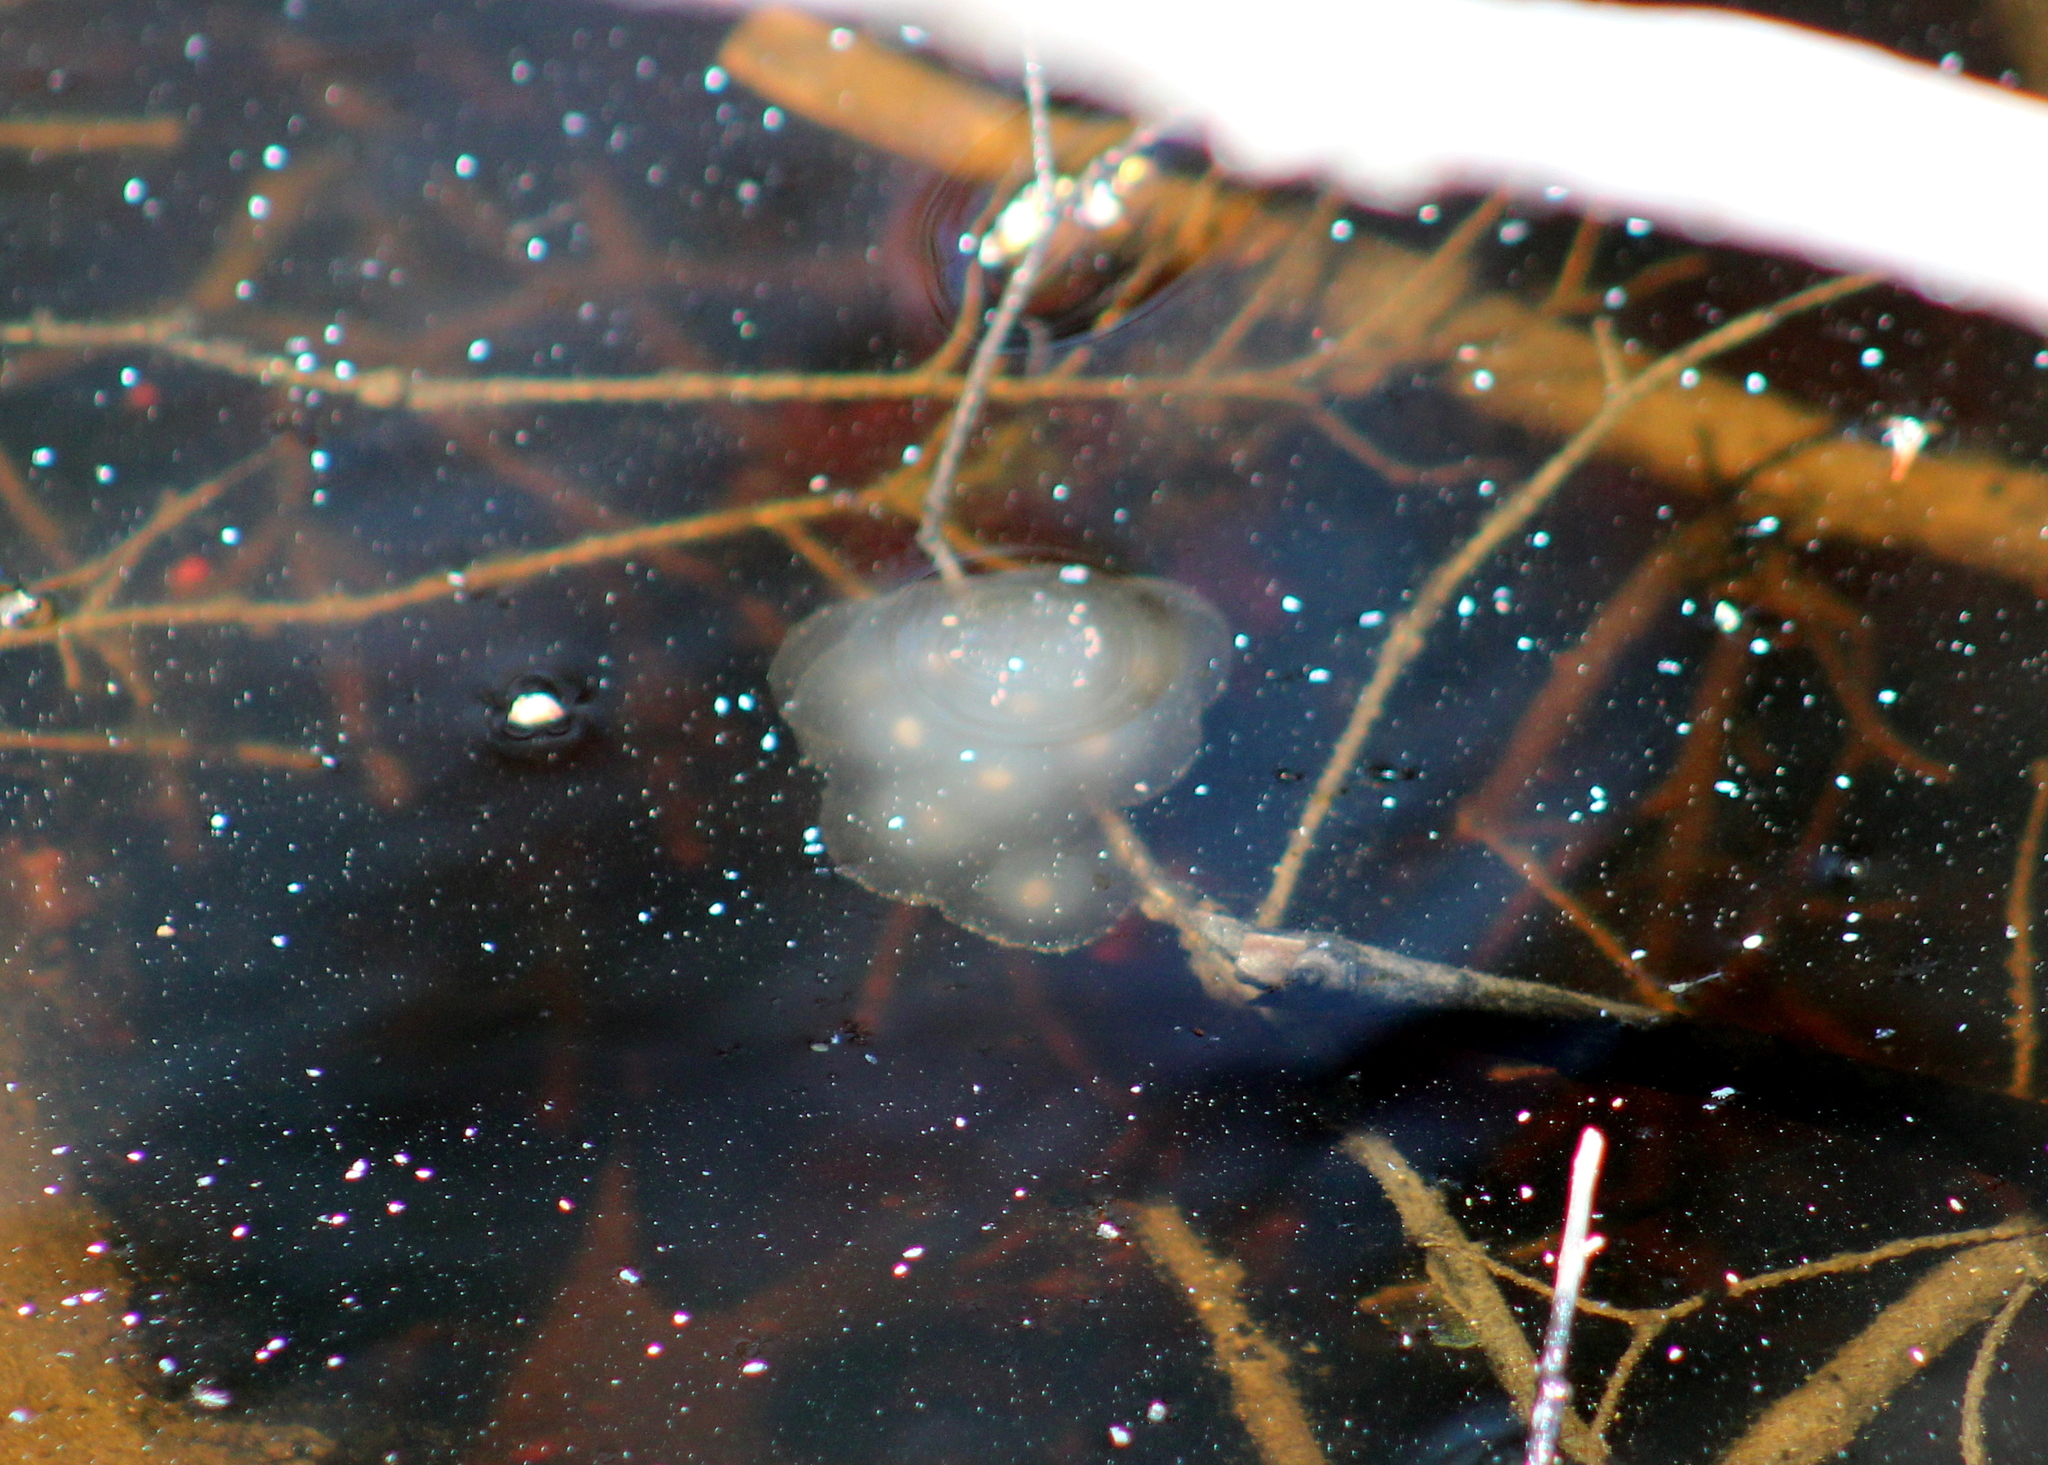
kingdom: Animalia
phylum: Chordata
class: Amphibia
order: Caudata
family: Ambystomatidae
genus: Ambystoma
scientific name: Ambystoma maculatum
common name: Spotted salamander
